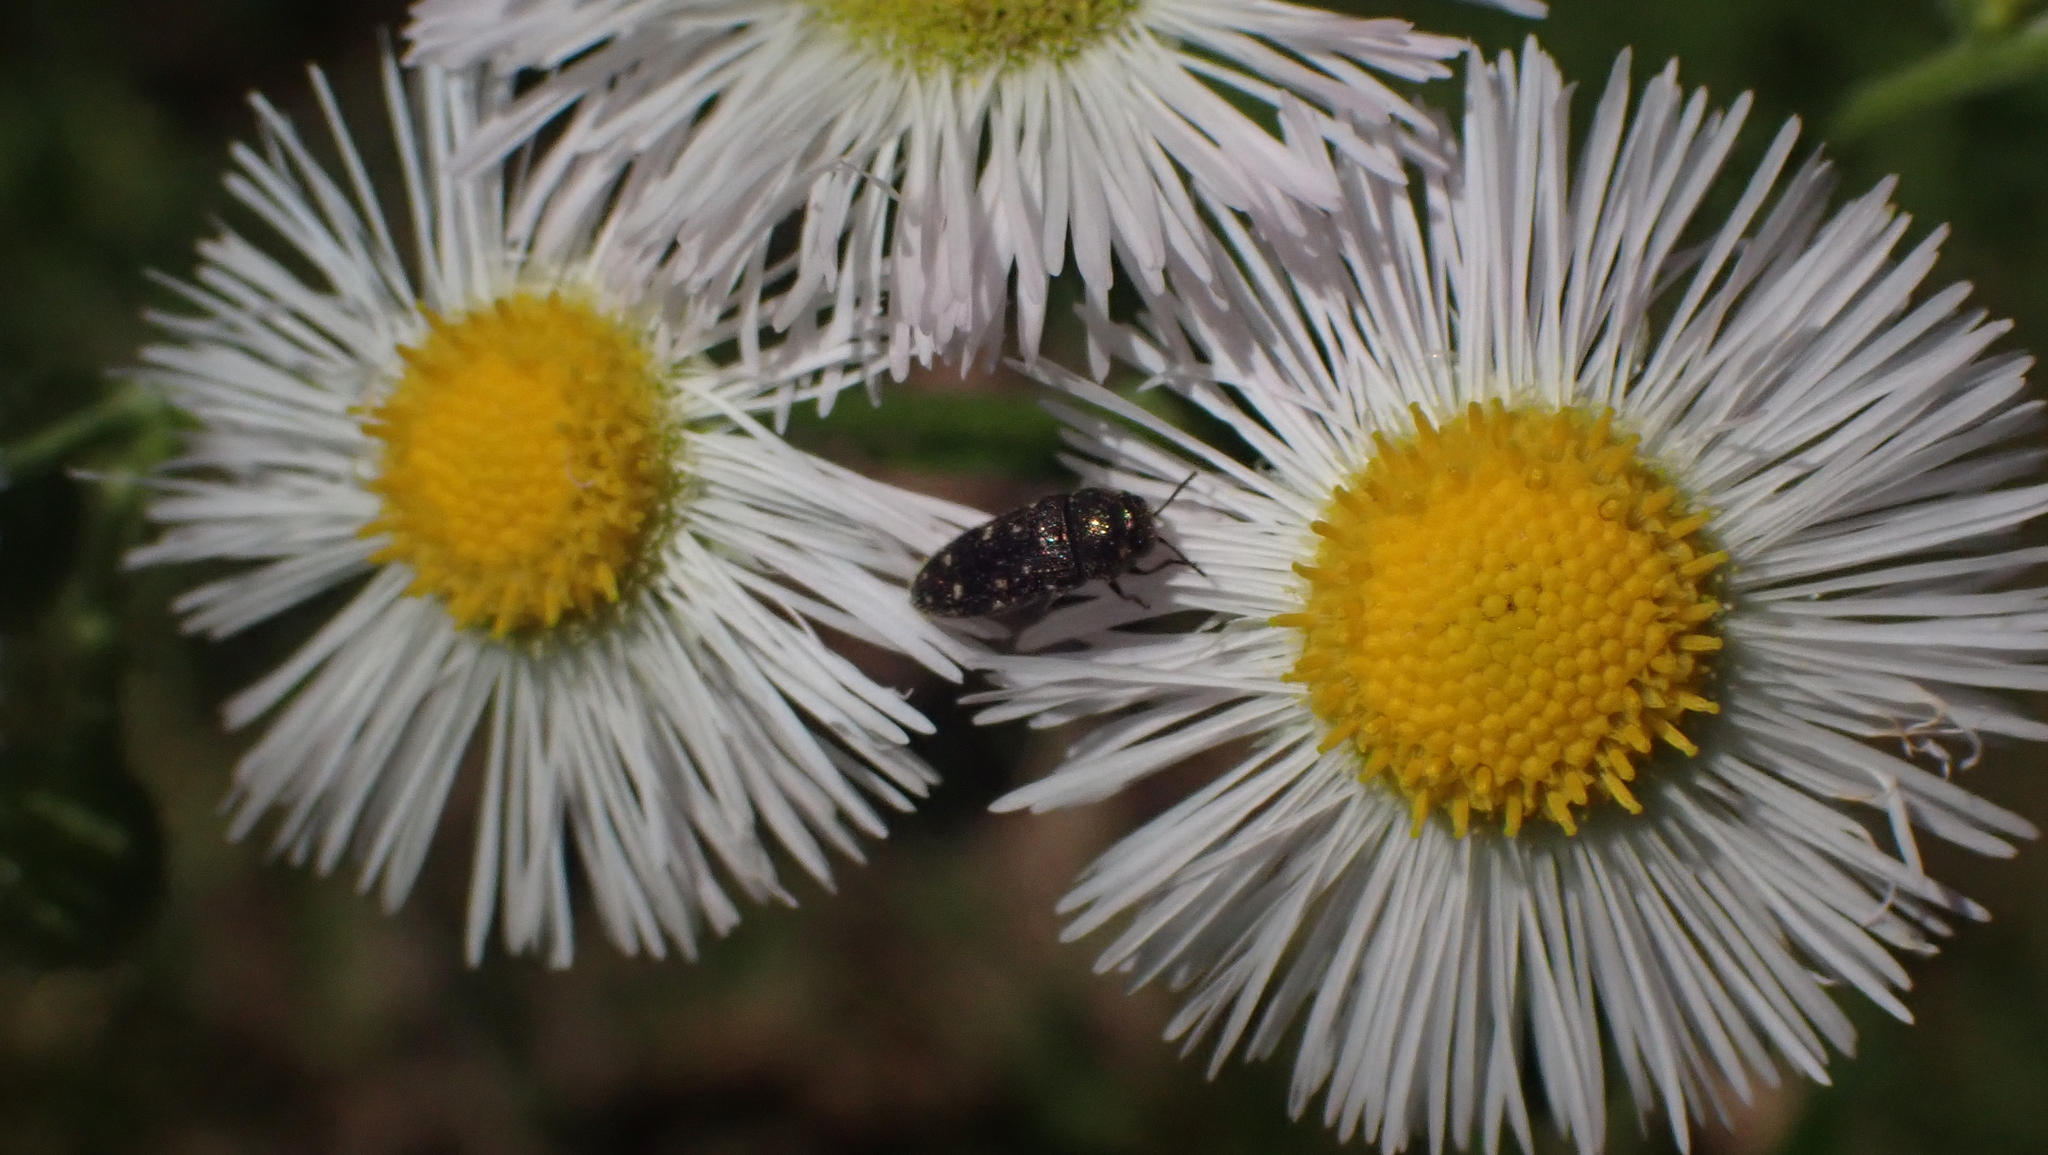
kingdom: Animalia
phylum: Arthropoda
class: Insecta
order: Coleoptera
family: Buprestidae
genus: Acmaeodera
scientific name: Acmaeodera tubulus
